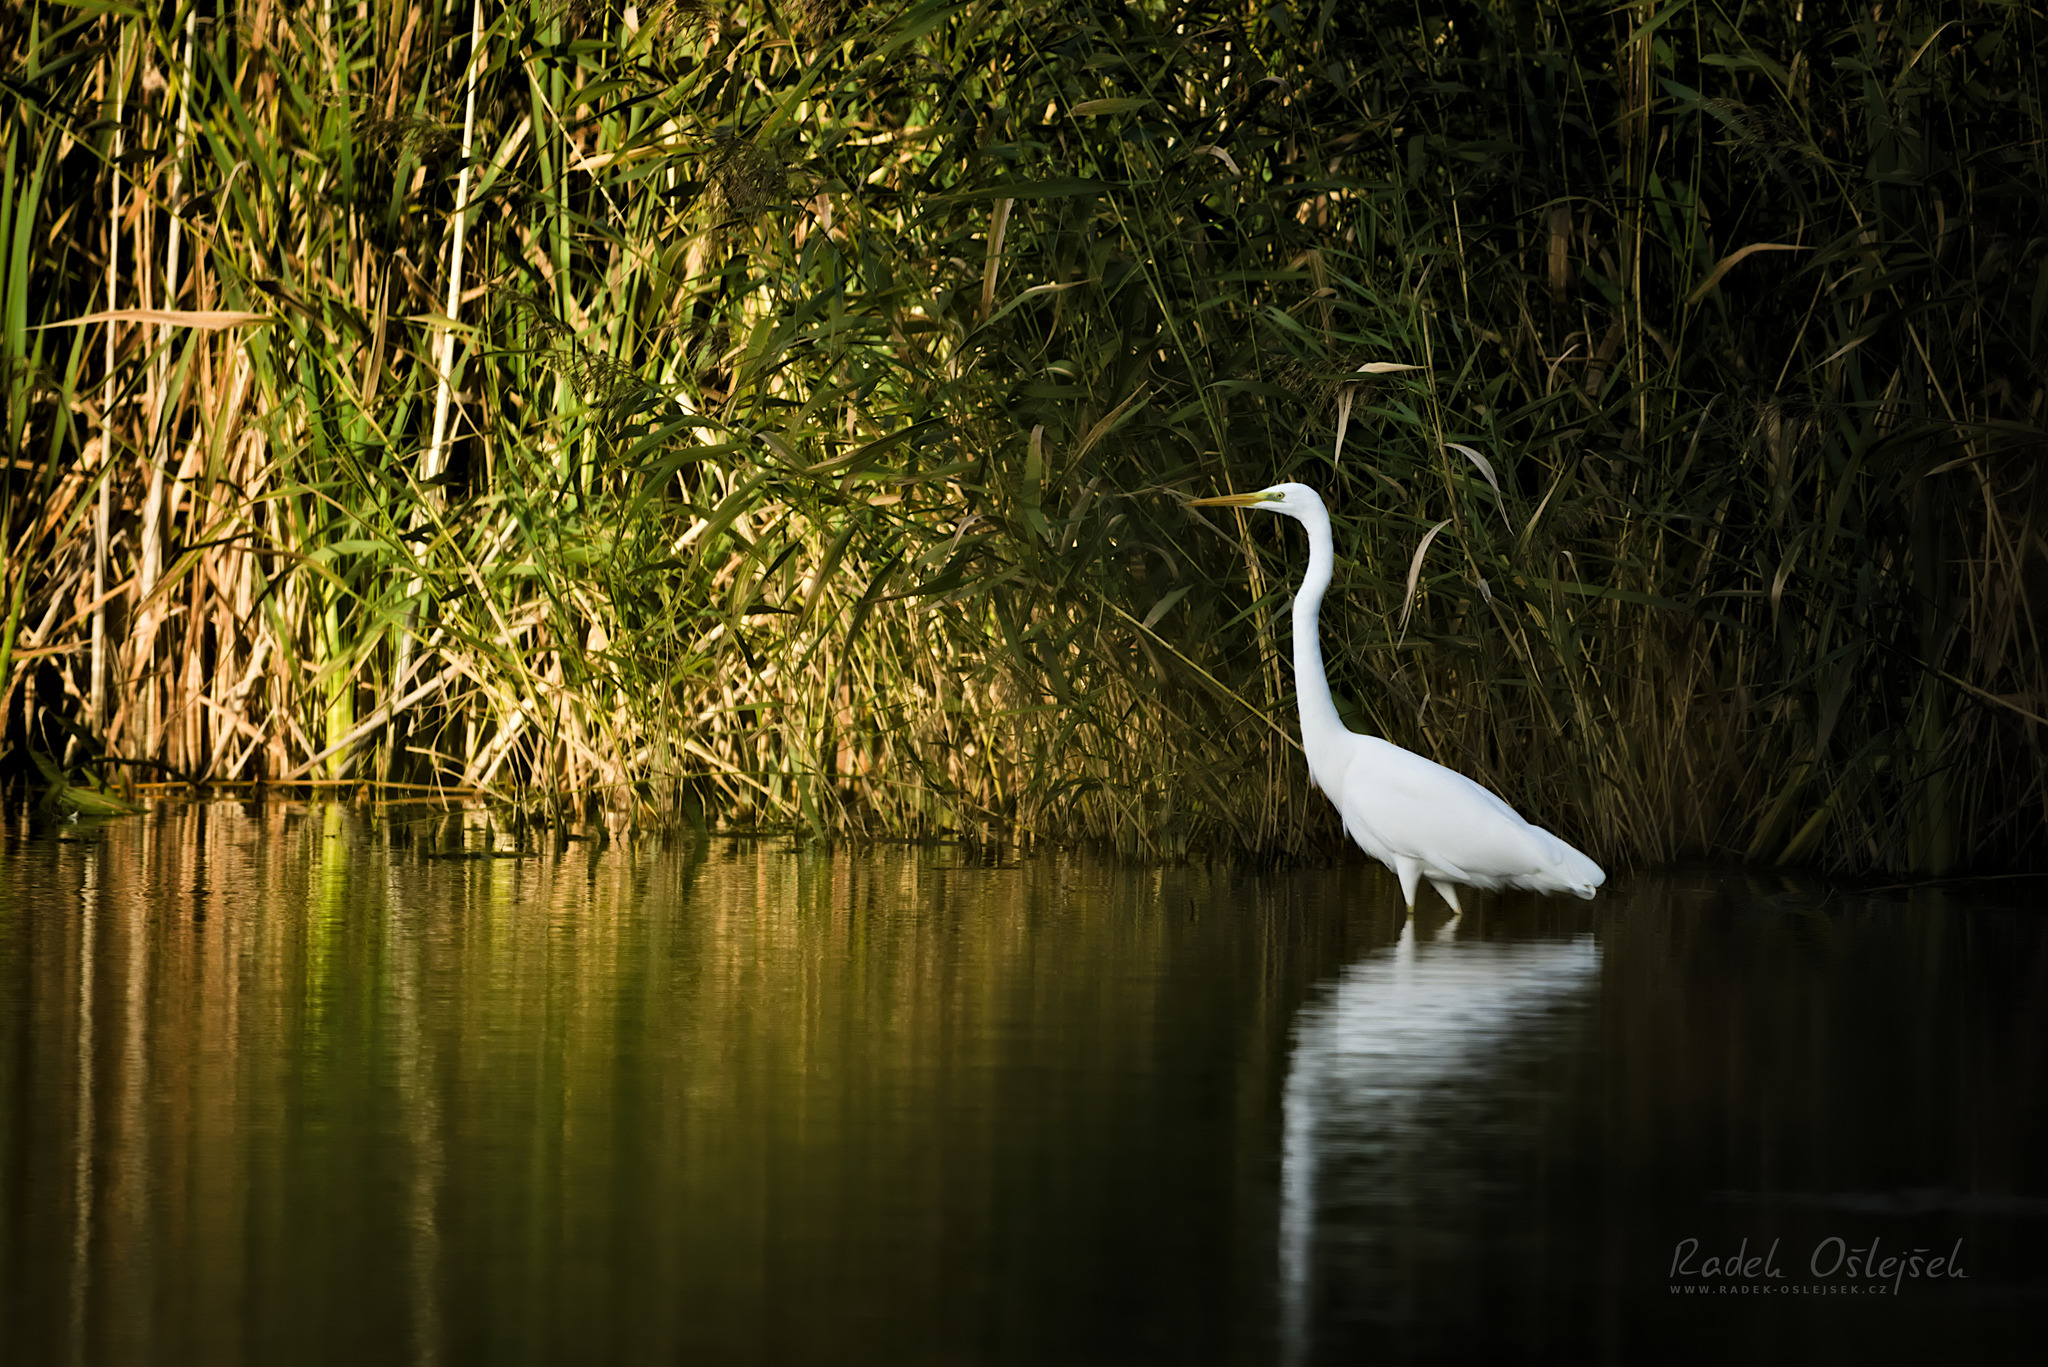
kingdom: Animalia
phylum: Chordata
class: Aves
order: Pelecaniformes
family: Ardeidae
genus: Ardea
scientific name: Ardea alba
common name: Great egret
